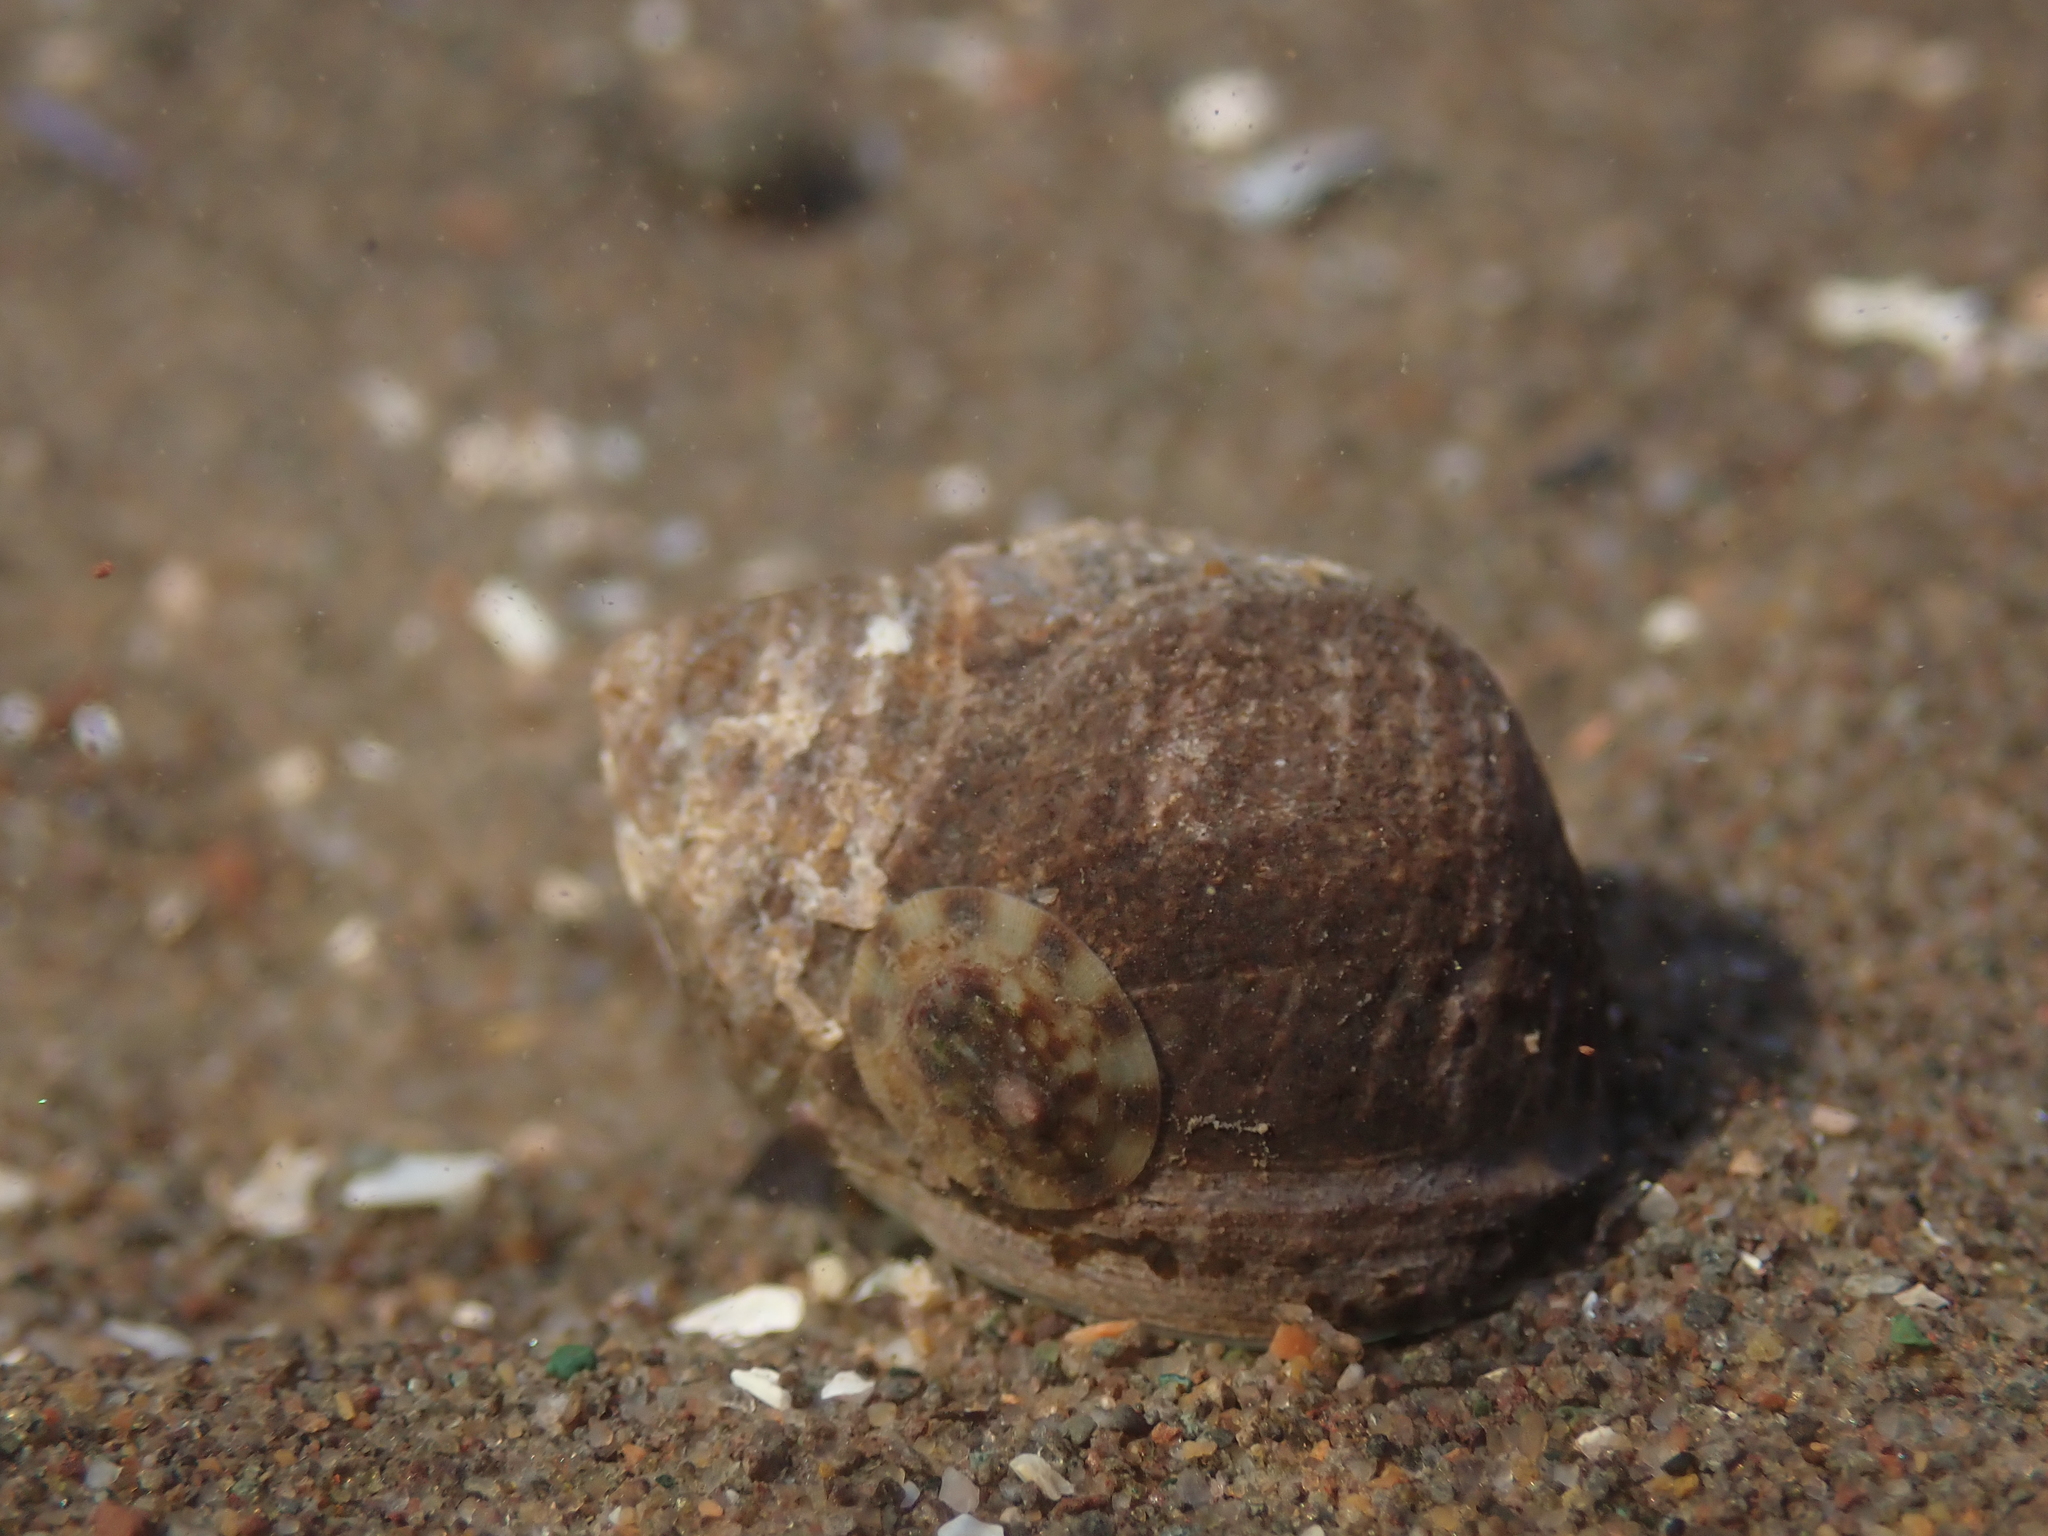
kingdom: Animalia
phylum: Mollusca
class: Gastropoda
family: Lottiidae
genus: Testudinalia
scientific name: Testudinalia testudinalis
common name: Common tortoiseshell limpet
